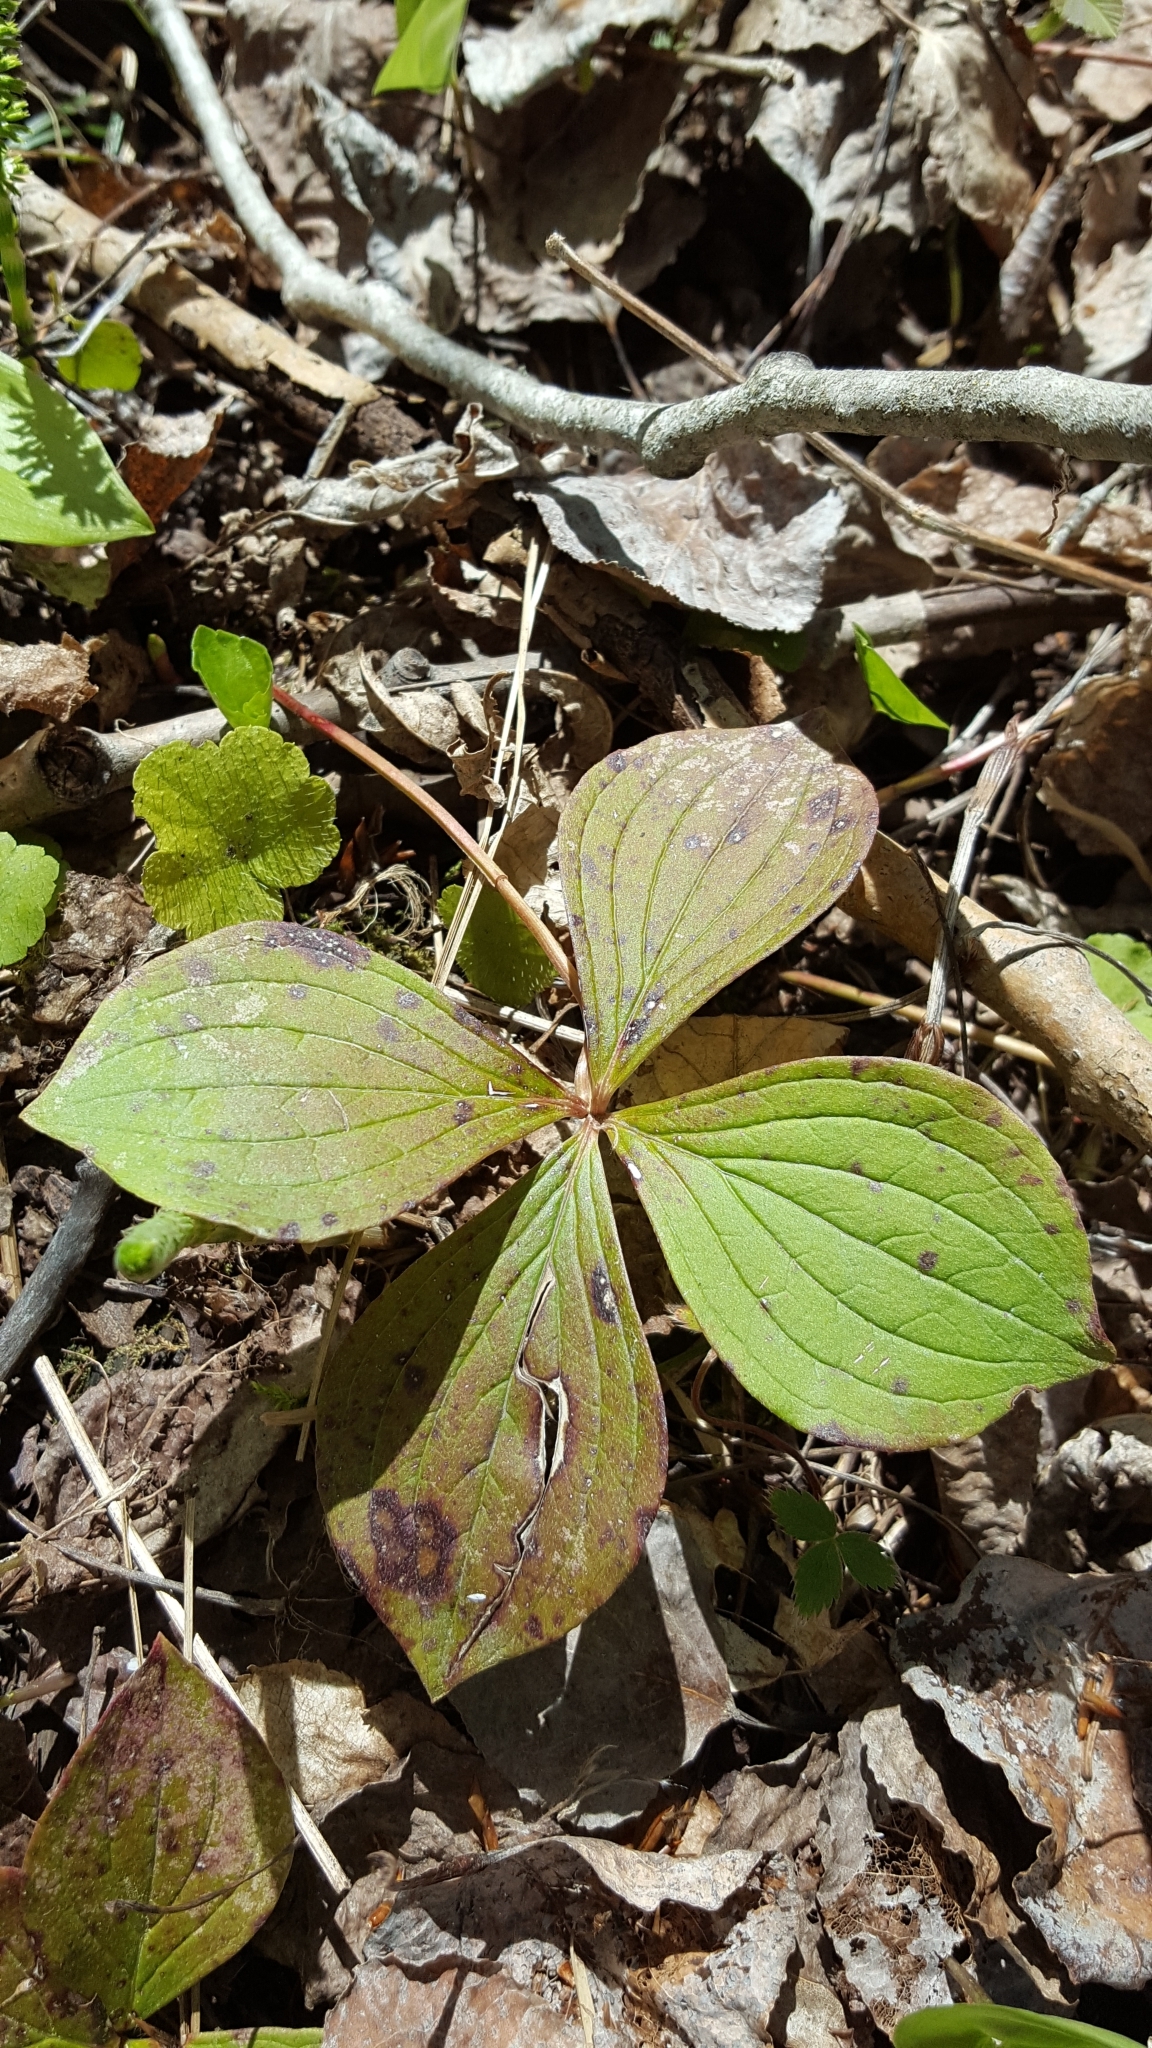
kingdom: Plantae
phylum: Tracheophyta
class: Magnoliopsida
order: Cornales
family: Cornaceae
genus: Cornus
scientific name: Cornus canadensis
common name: Creeping dogwood
